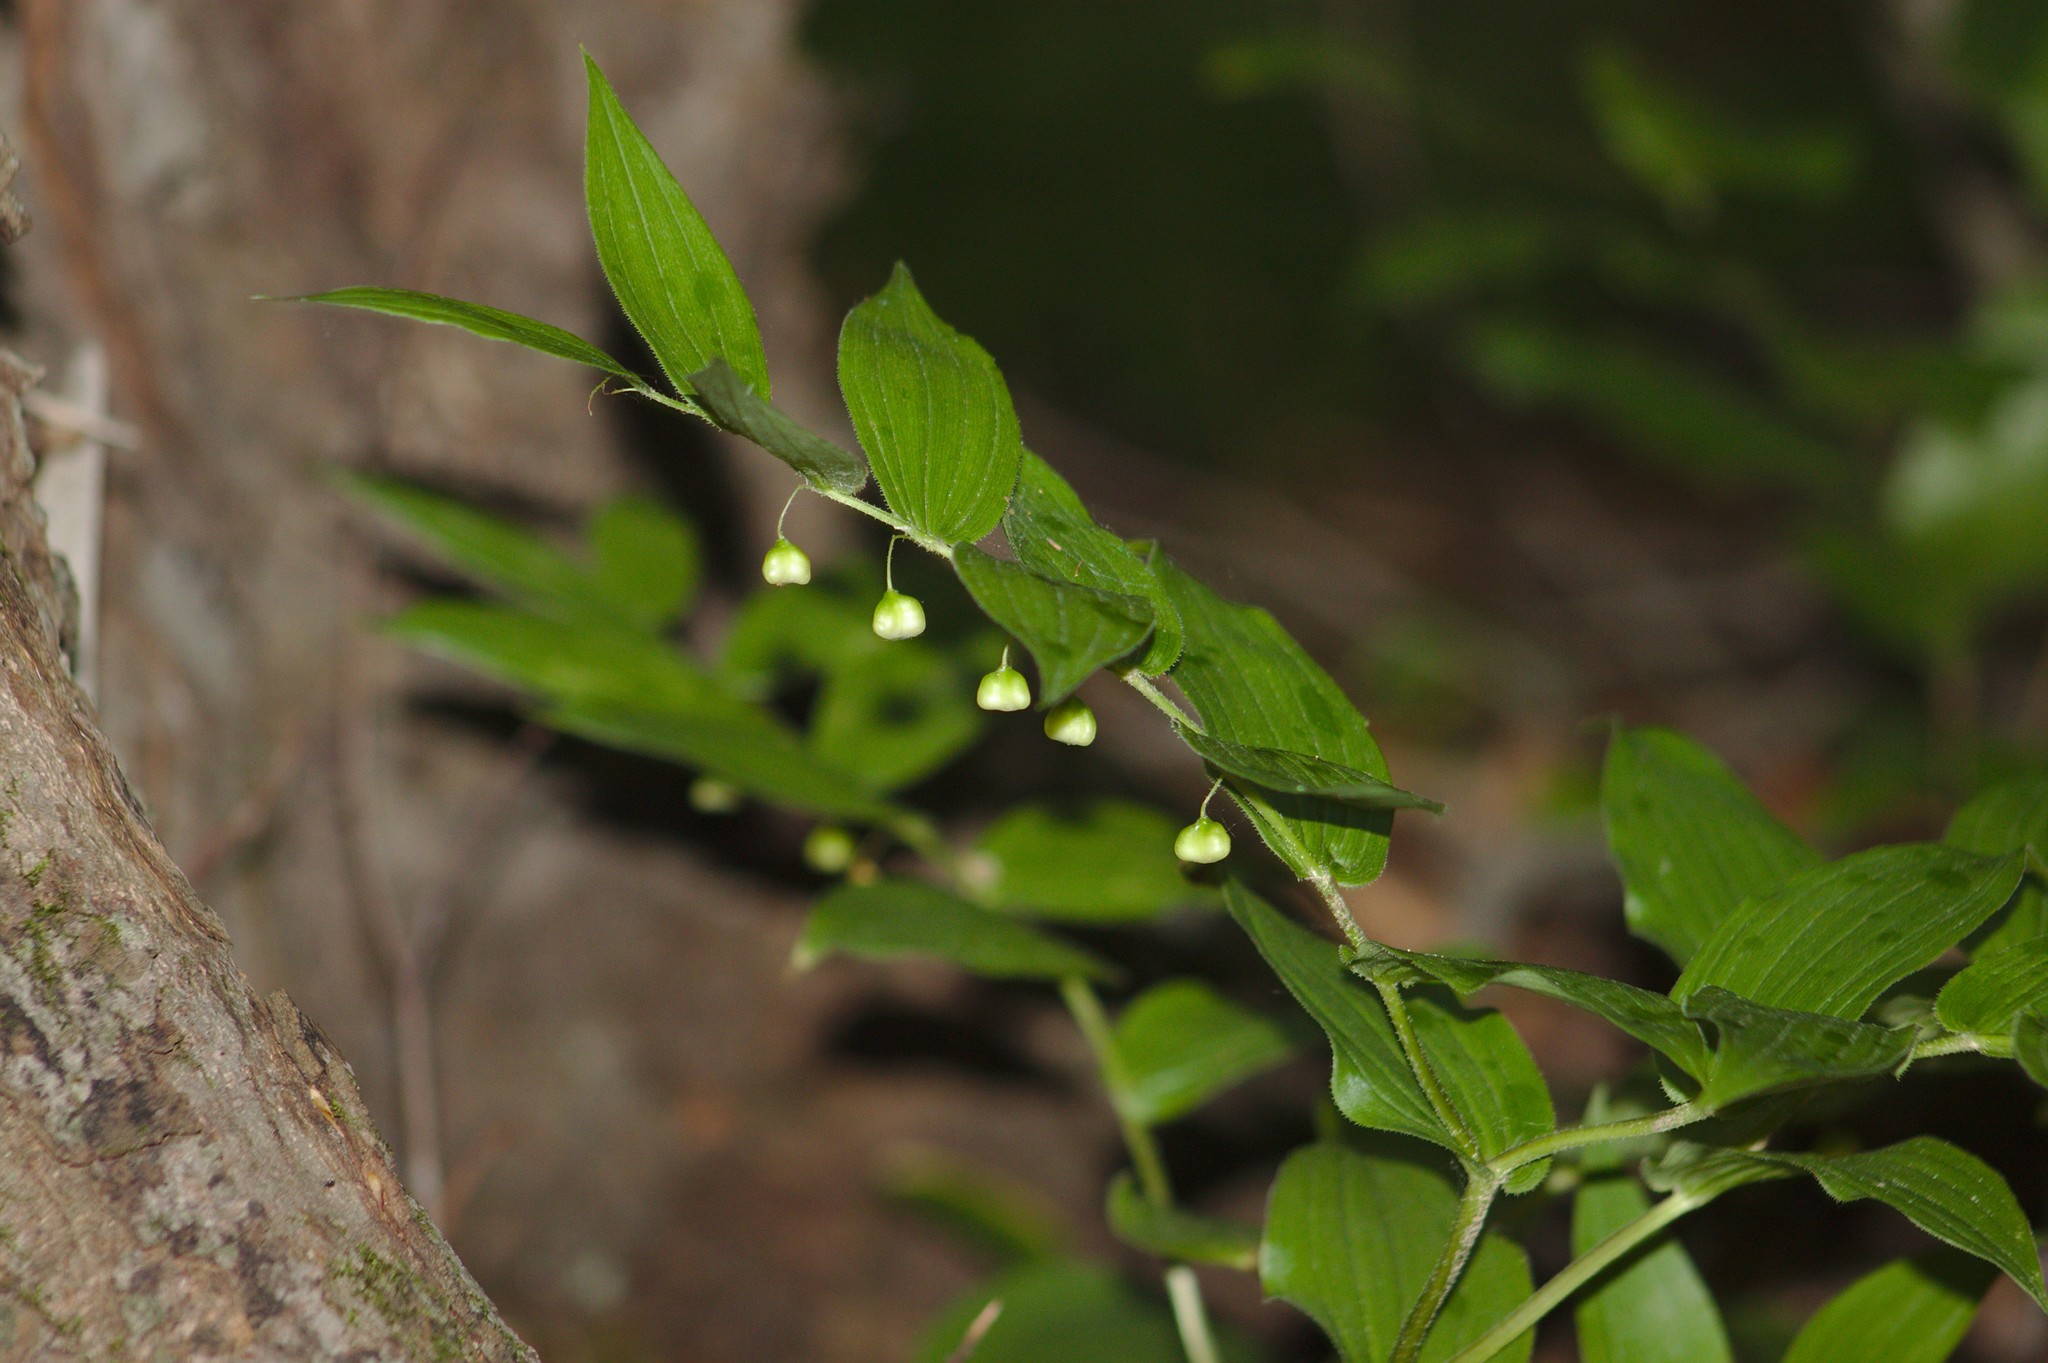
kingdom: Plantae
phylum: Tracheophyta
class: Liliopsida
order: Liliales
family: Liliaceae
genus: Streptopus
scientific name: Streptopus lanceolatus
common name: Rose mandarin
